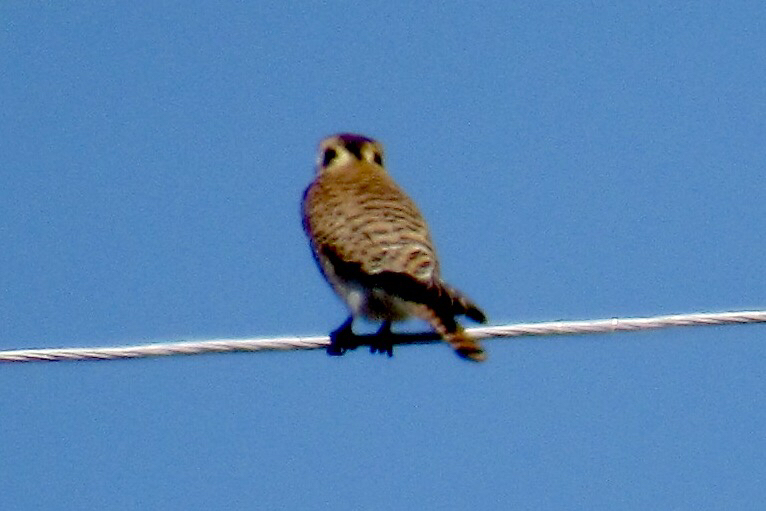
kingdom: Animalia
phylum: Chordata
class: Aves
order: Falconiformes
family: Falconidae
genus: Falco
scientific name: Falco sparverius
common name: American kestrel
